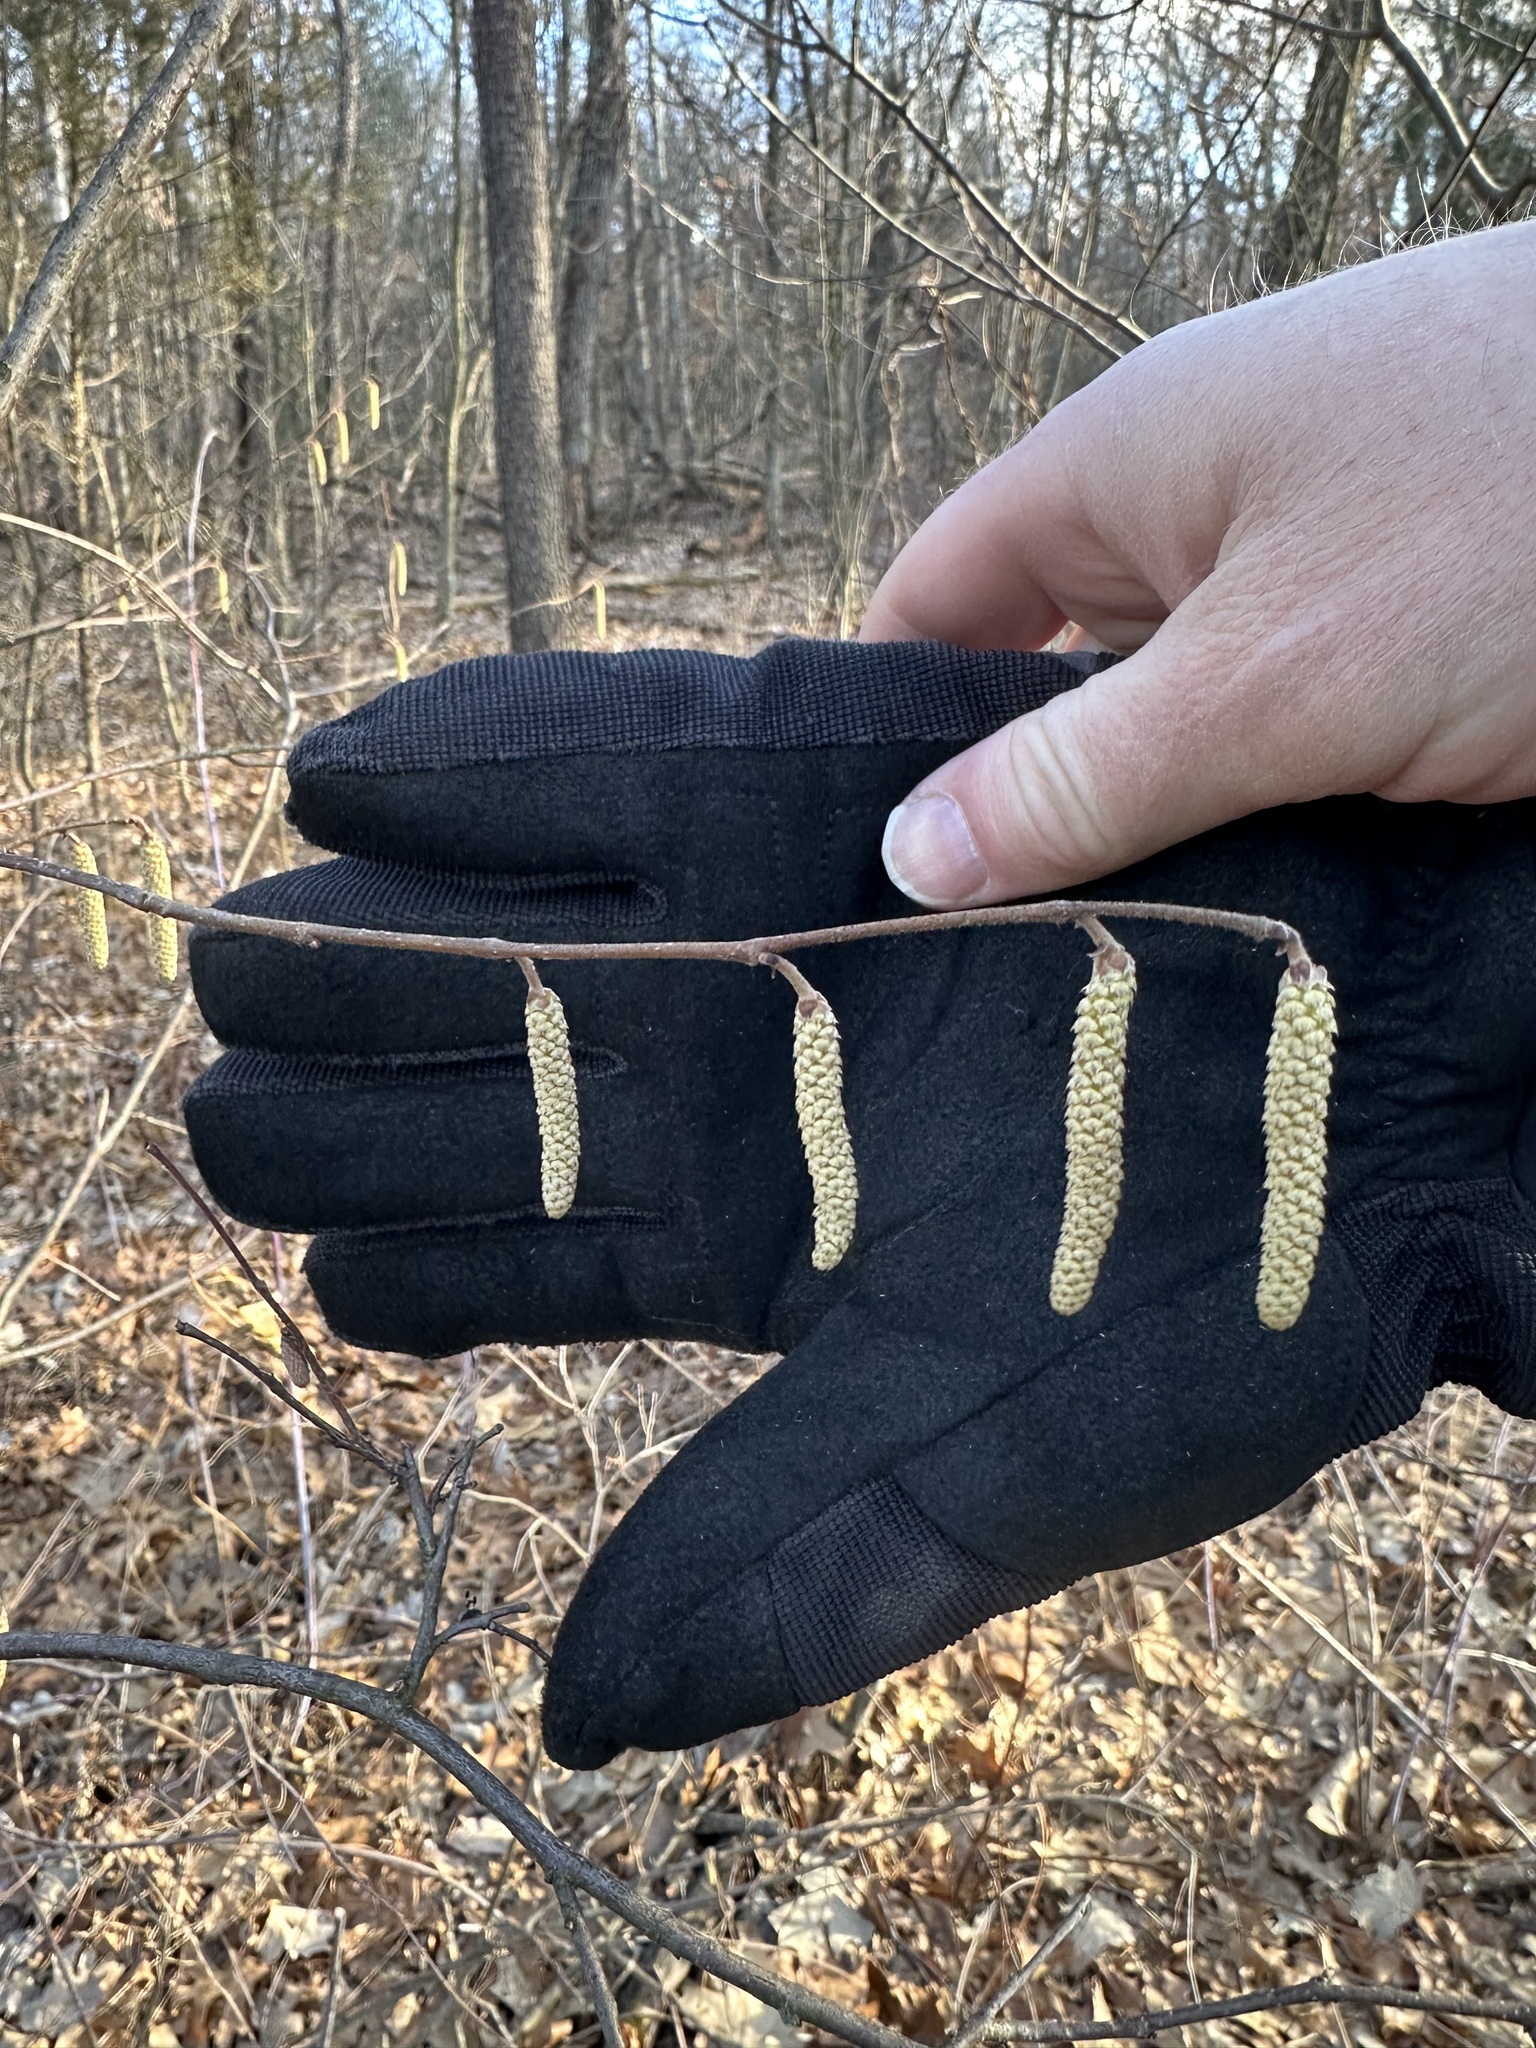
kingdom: Plantae
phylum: Tracheophyta
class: Magnoliopsida
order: Fagales
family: Betulaceae
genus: Corylus
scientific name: Corylus americana
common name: American hazel
